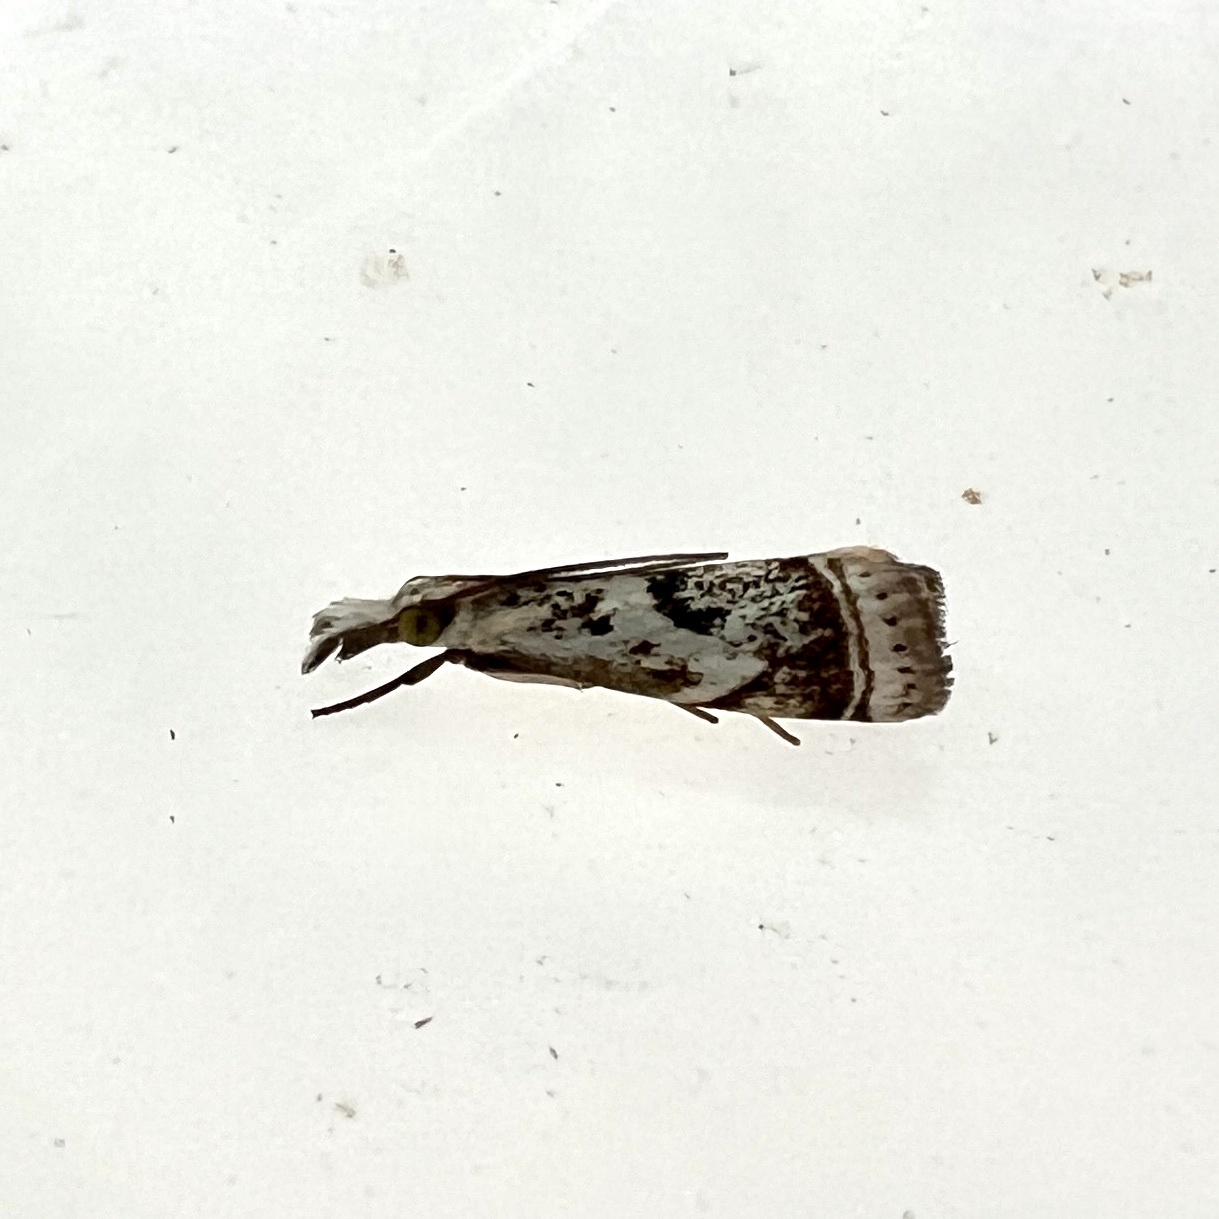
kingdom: Animalia
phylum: Arthropoda
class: Insecta
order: Lepidoptera
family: Crambidae
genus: Microcrambus
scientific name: Microcrambus elegans
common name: Elegant grass-veneer
